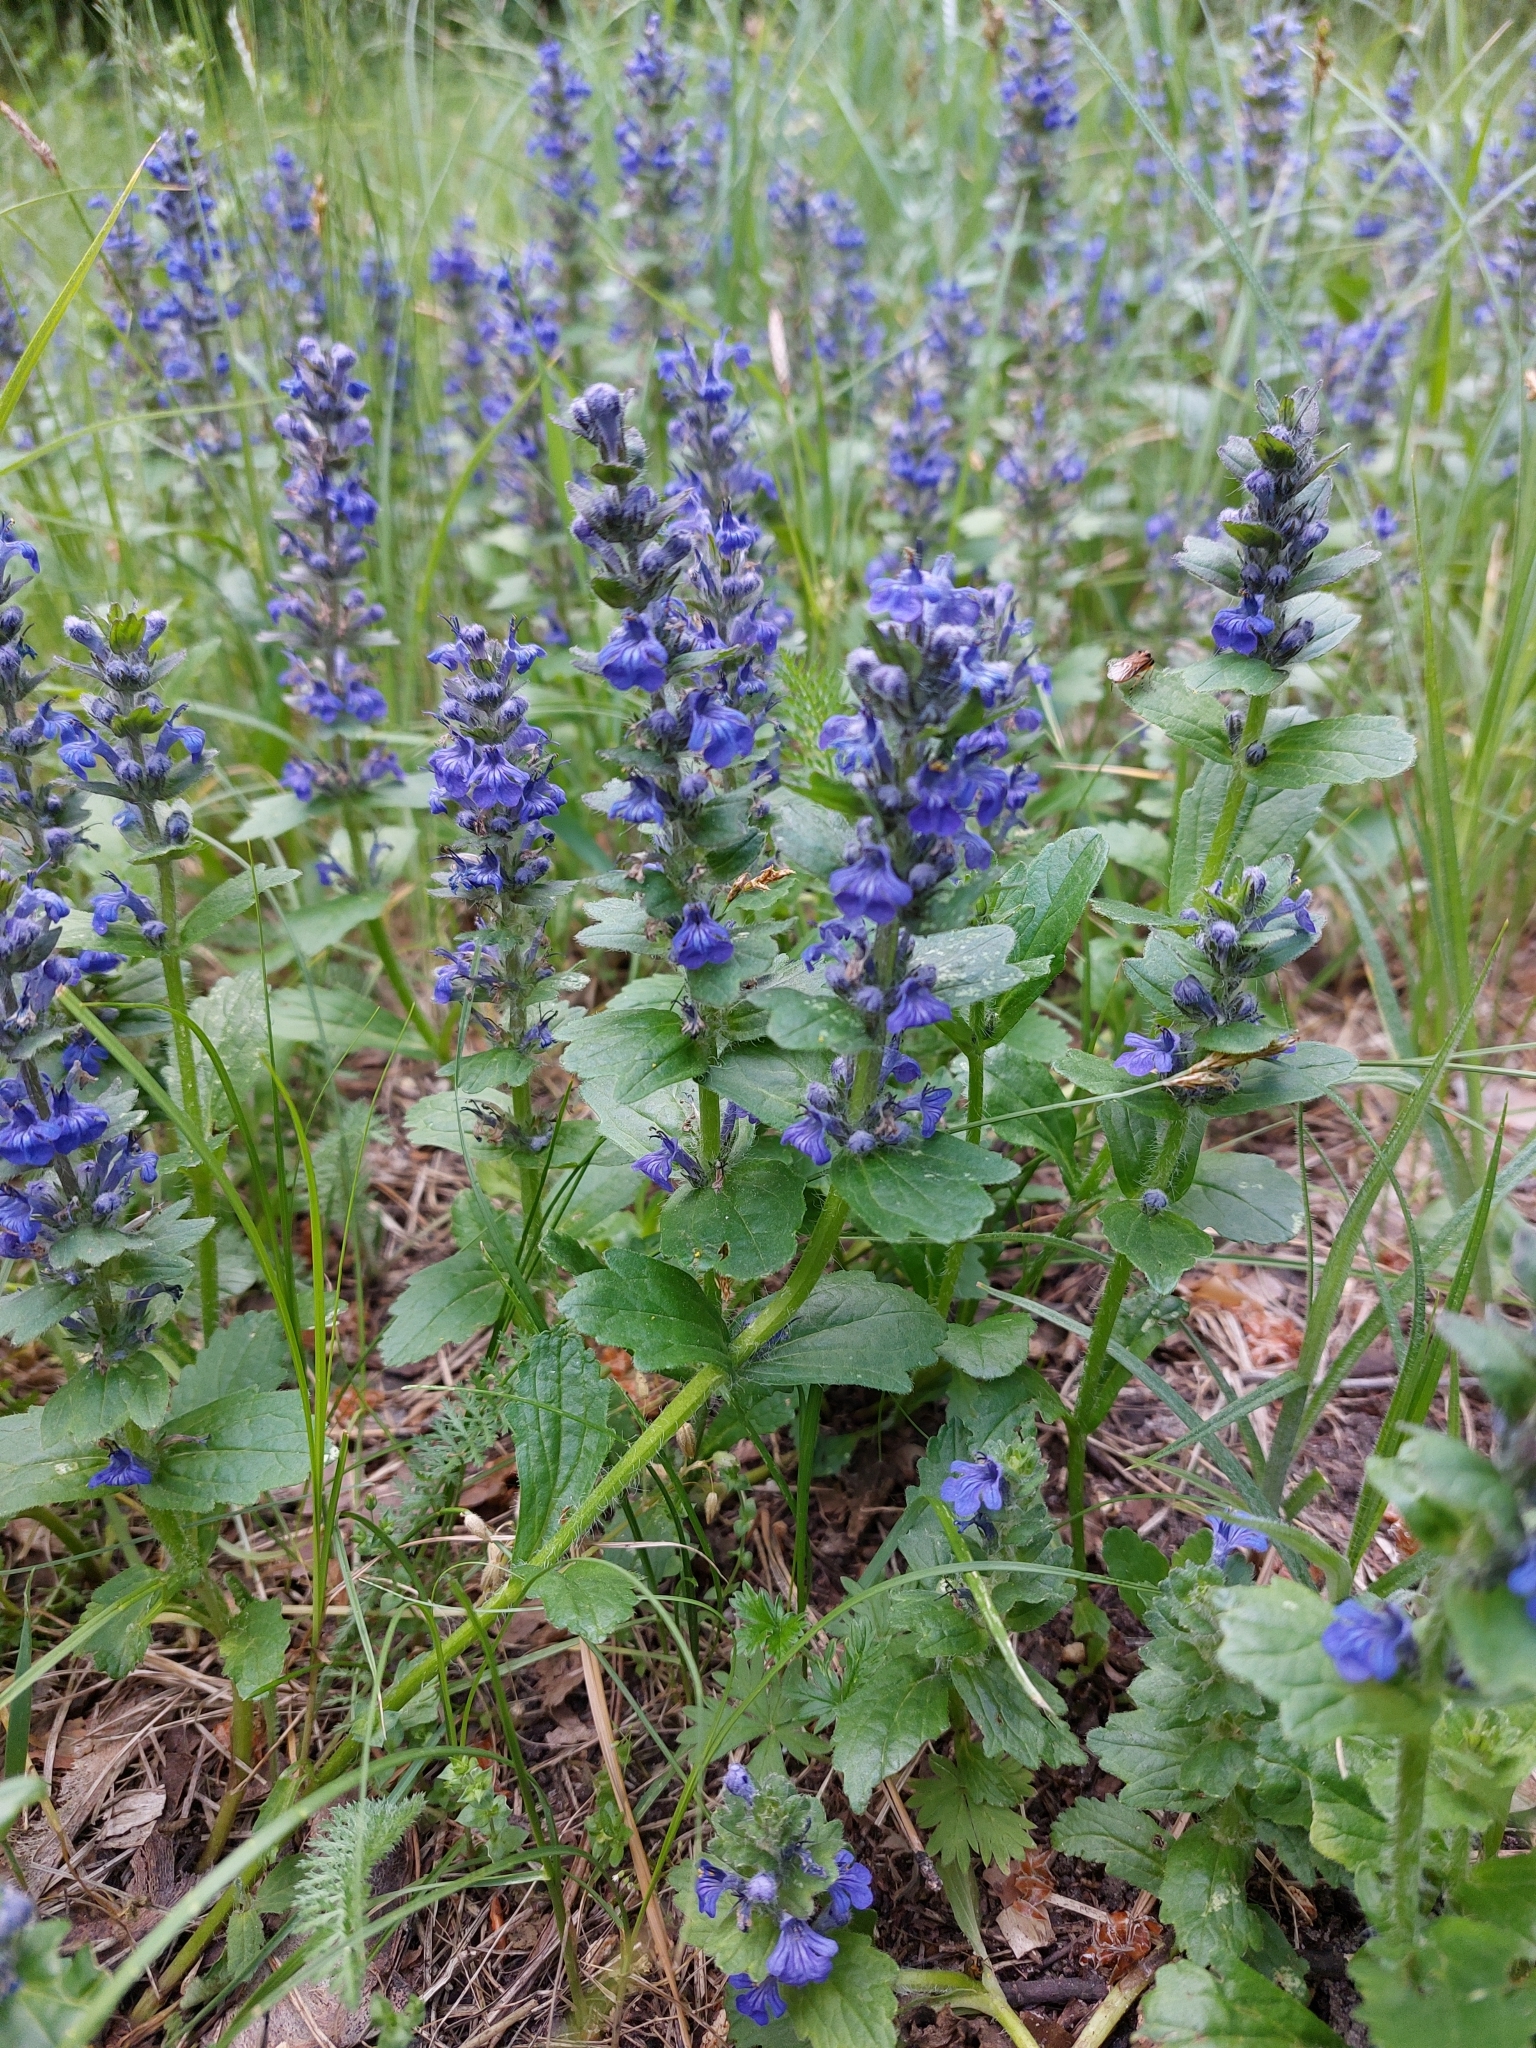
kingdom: Plantae
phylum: Tracheophyta
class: Magnoliopsida
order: Lamiales
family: Lamiaceae
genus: Ajuga
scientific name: Ajuga genevensis
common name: Blue bugle
